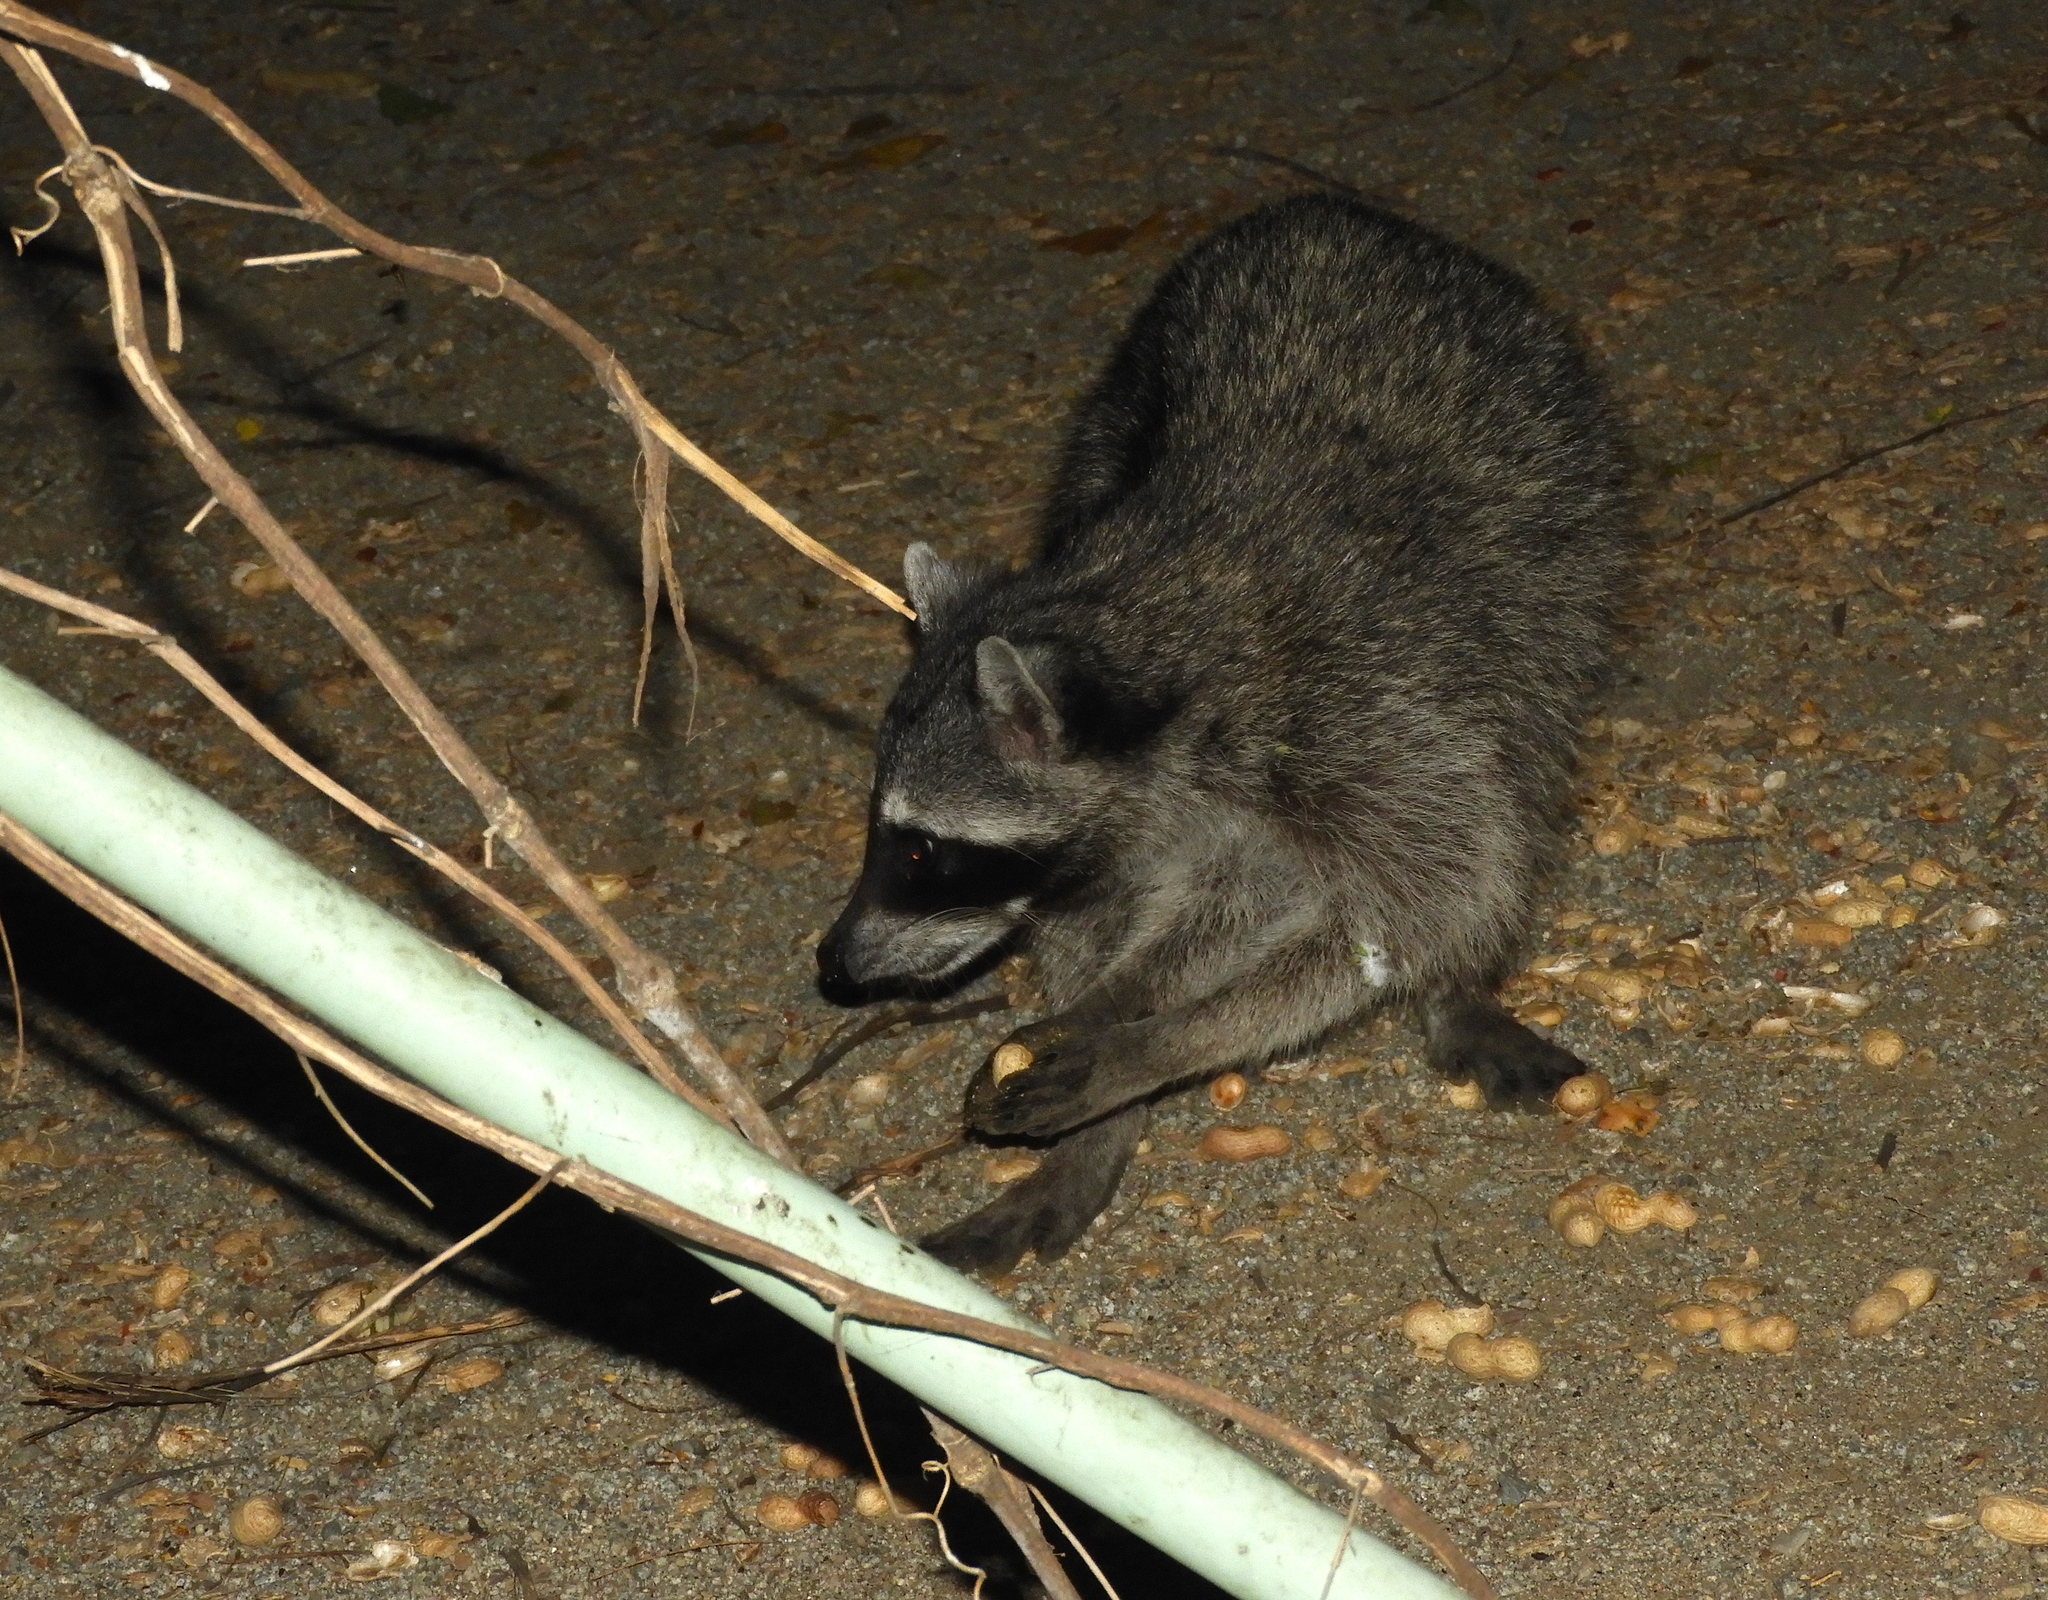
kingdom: Animalia
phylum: Chordata
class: Mammalia
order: Carnivora
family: Procyonidae
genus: Procyon
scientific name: Procyon lotor
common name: Raccoon
